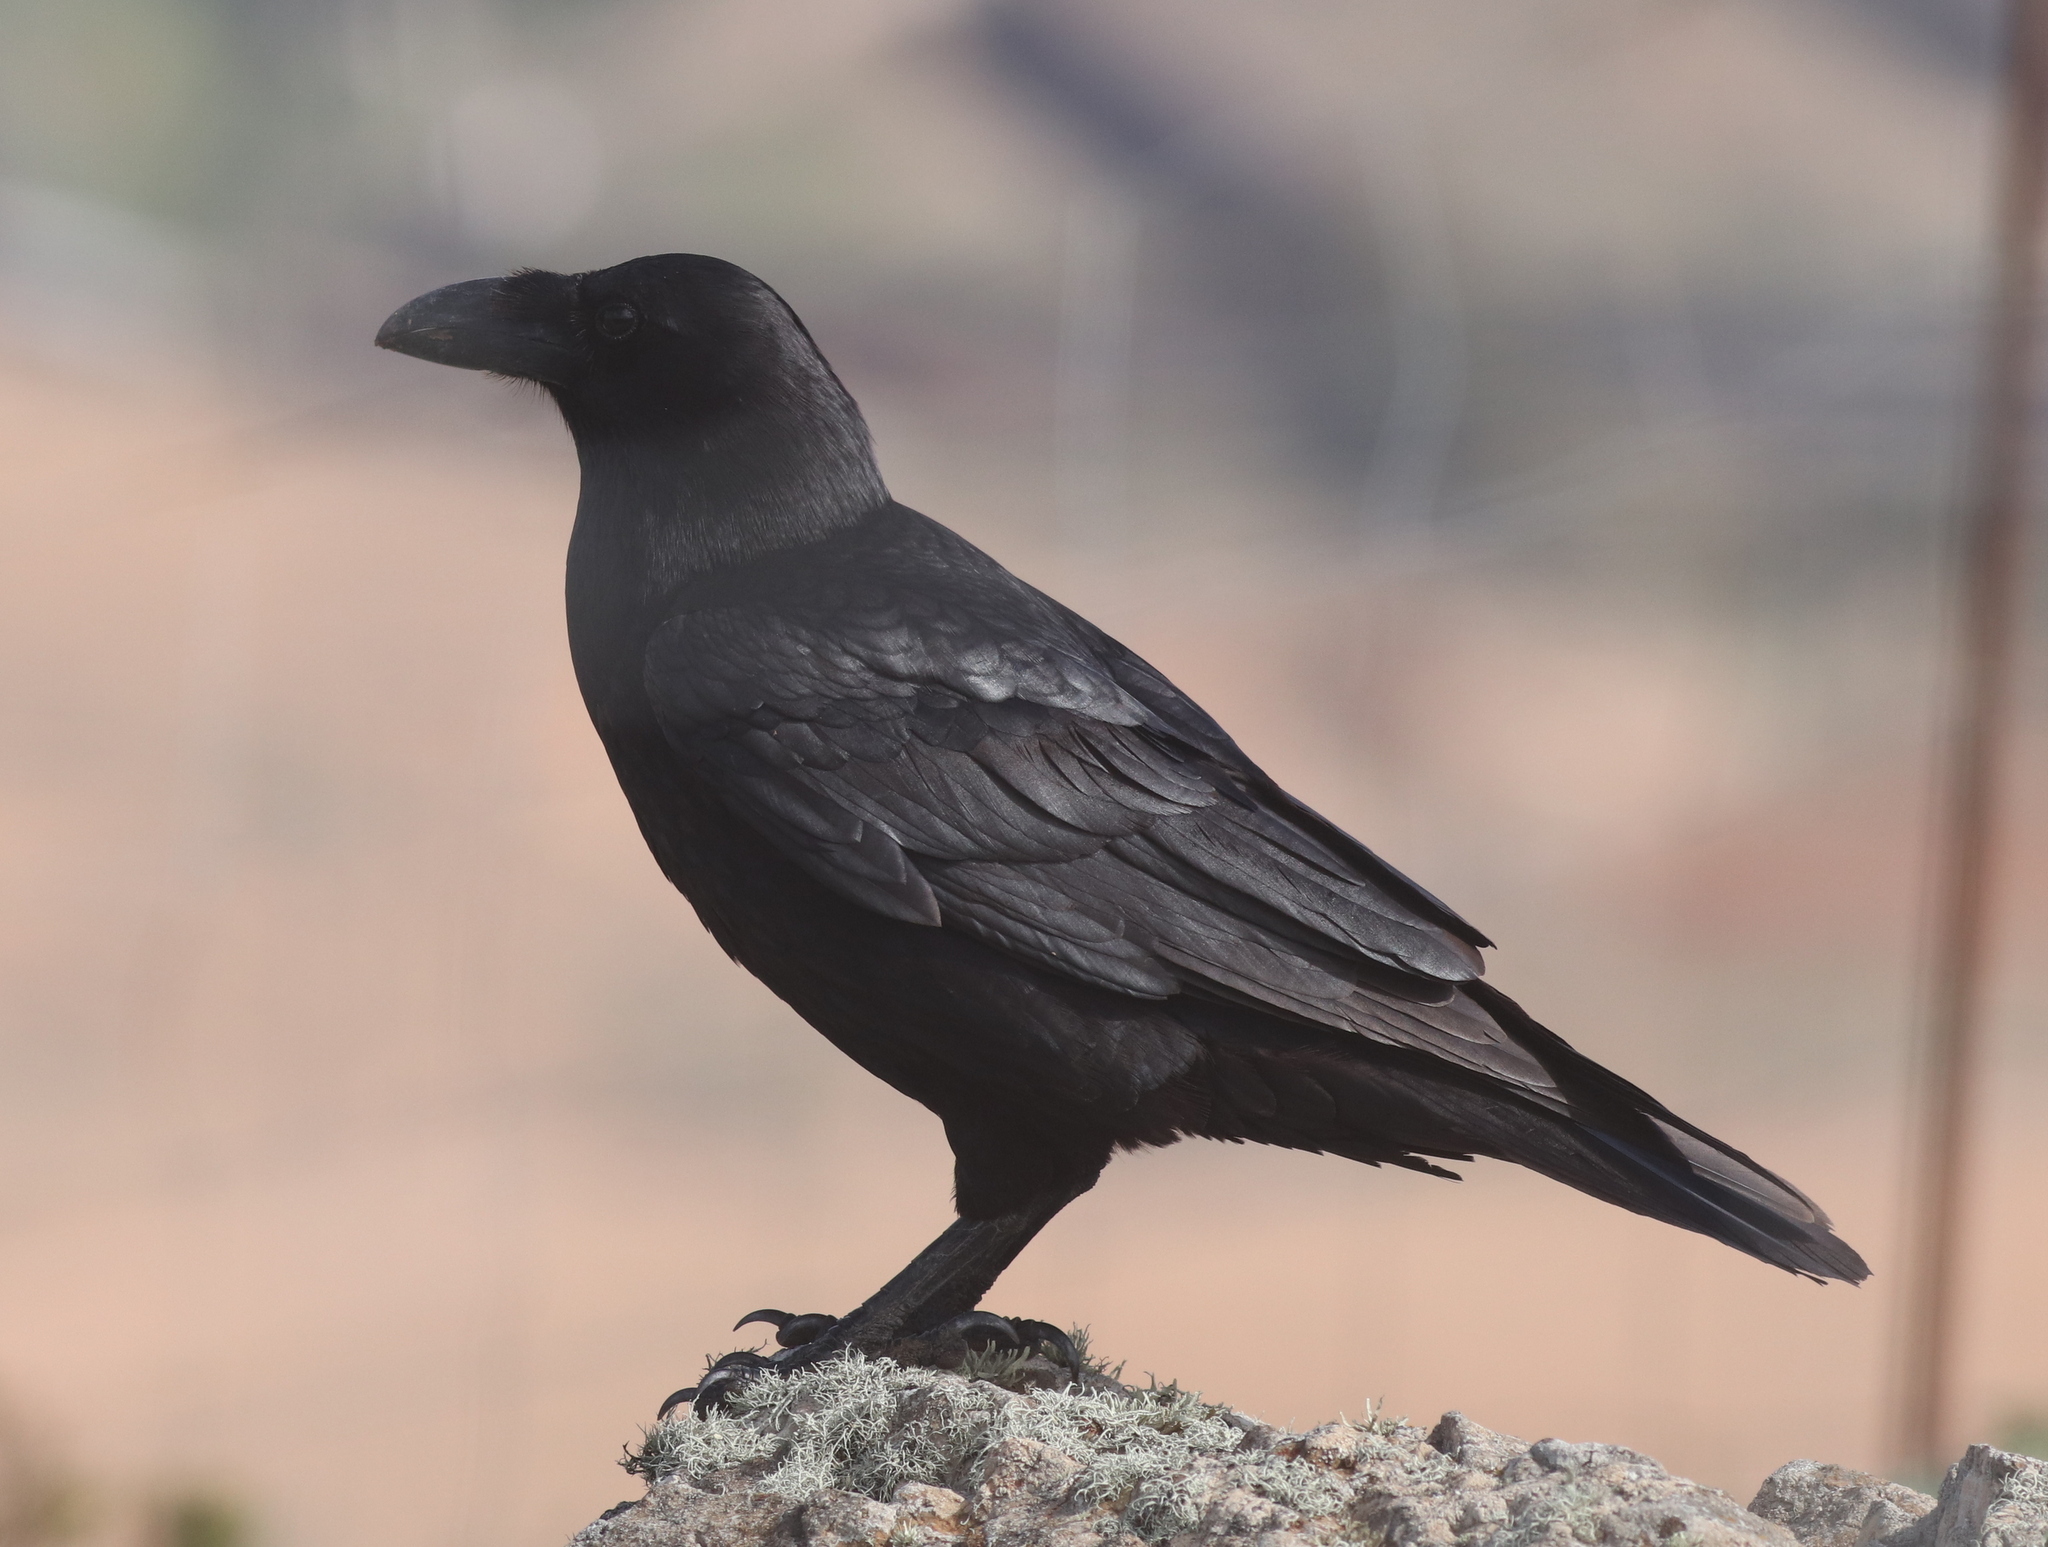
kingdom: Animalia
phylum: Chordata
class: Aves
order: Passeriformes
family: Corvidae
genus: Corvus
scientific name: Corvus corax
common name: Common raven
